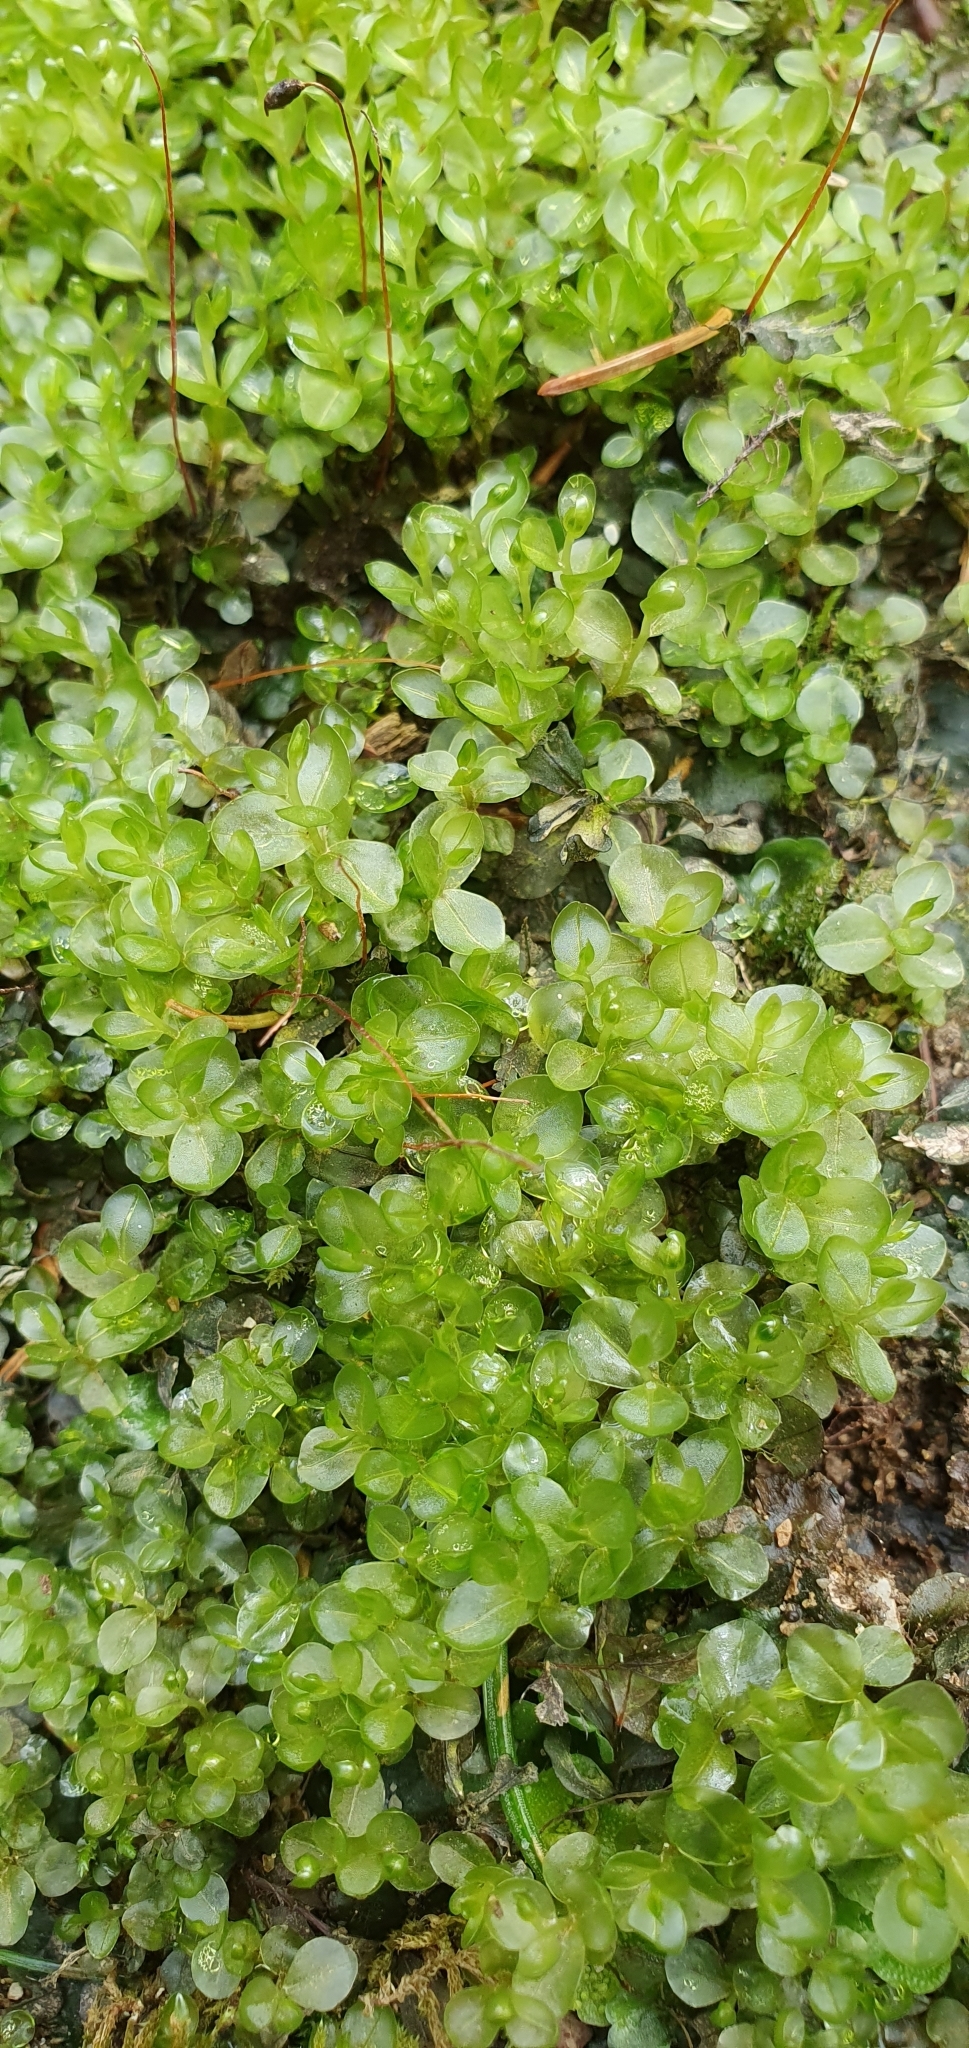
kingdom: Plantae
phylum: Bryophyta
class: Bryopsida
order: Bryales
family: Mniaceae
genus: Rhizomnium
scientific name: Rhizomnium punctatum
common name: Dotted leafy moss
